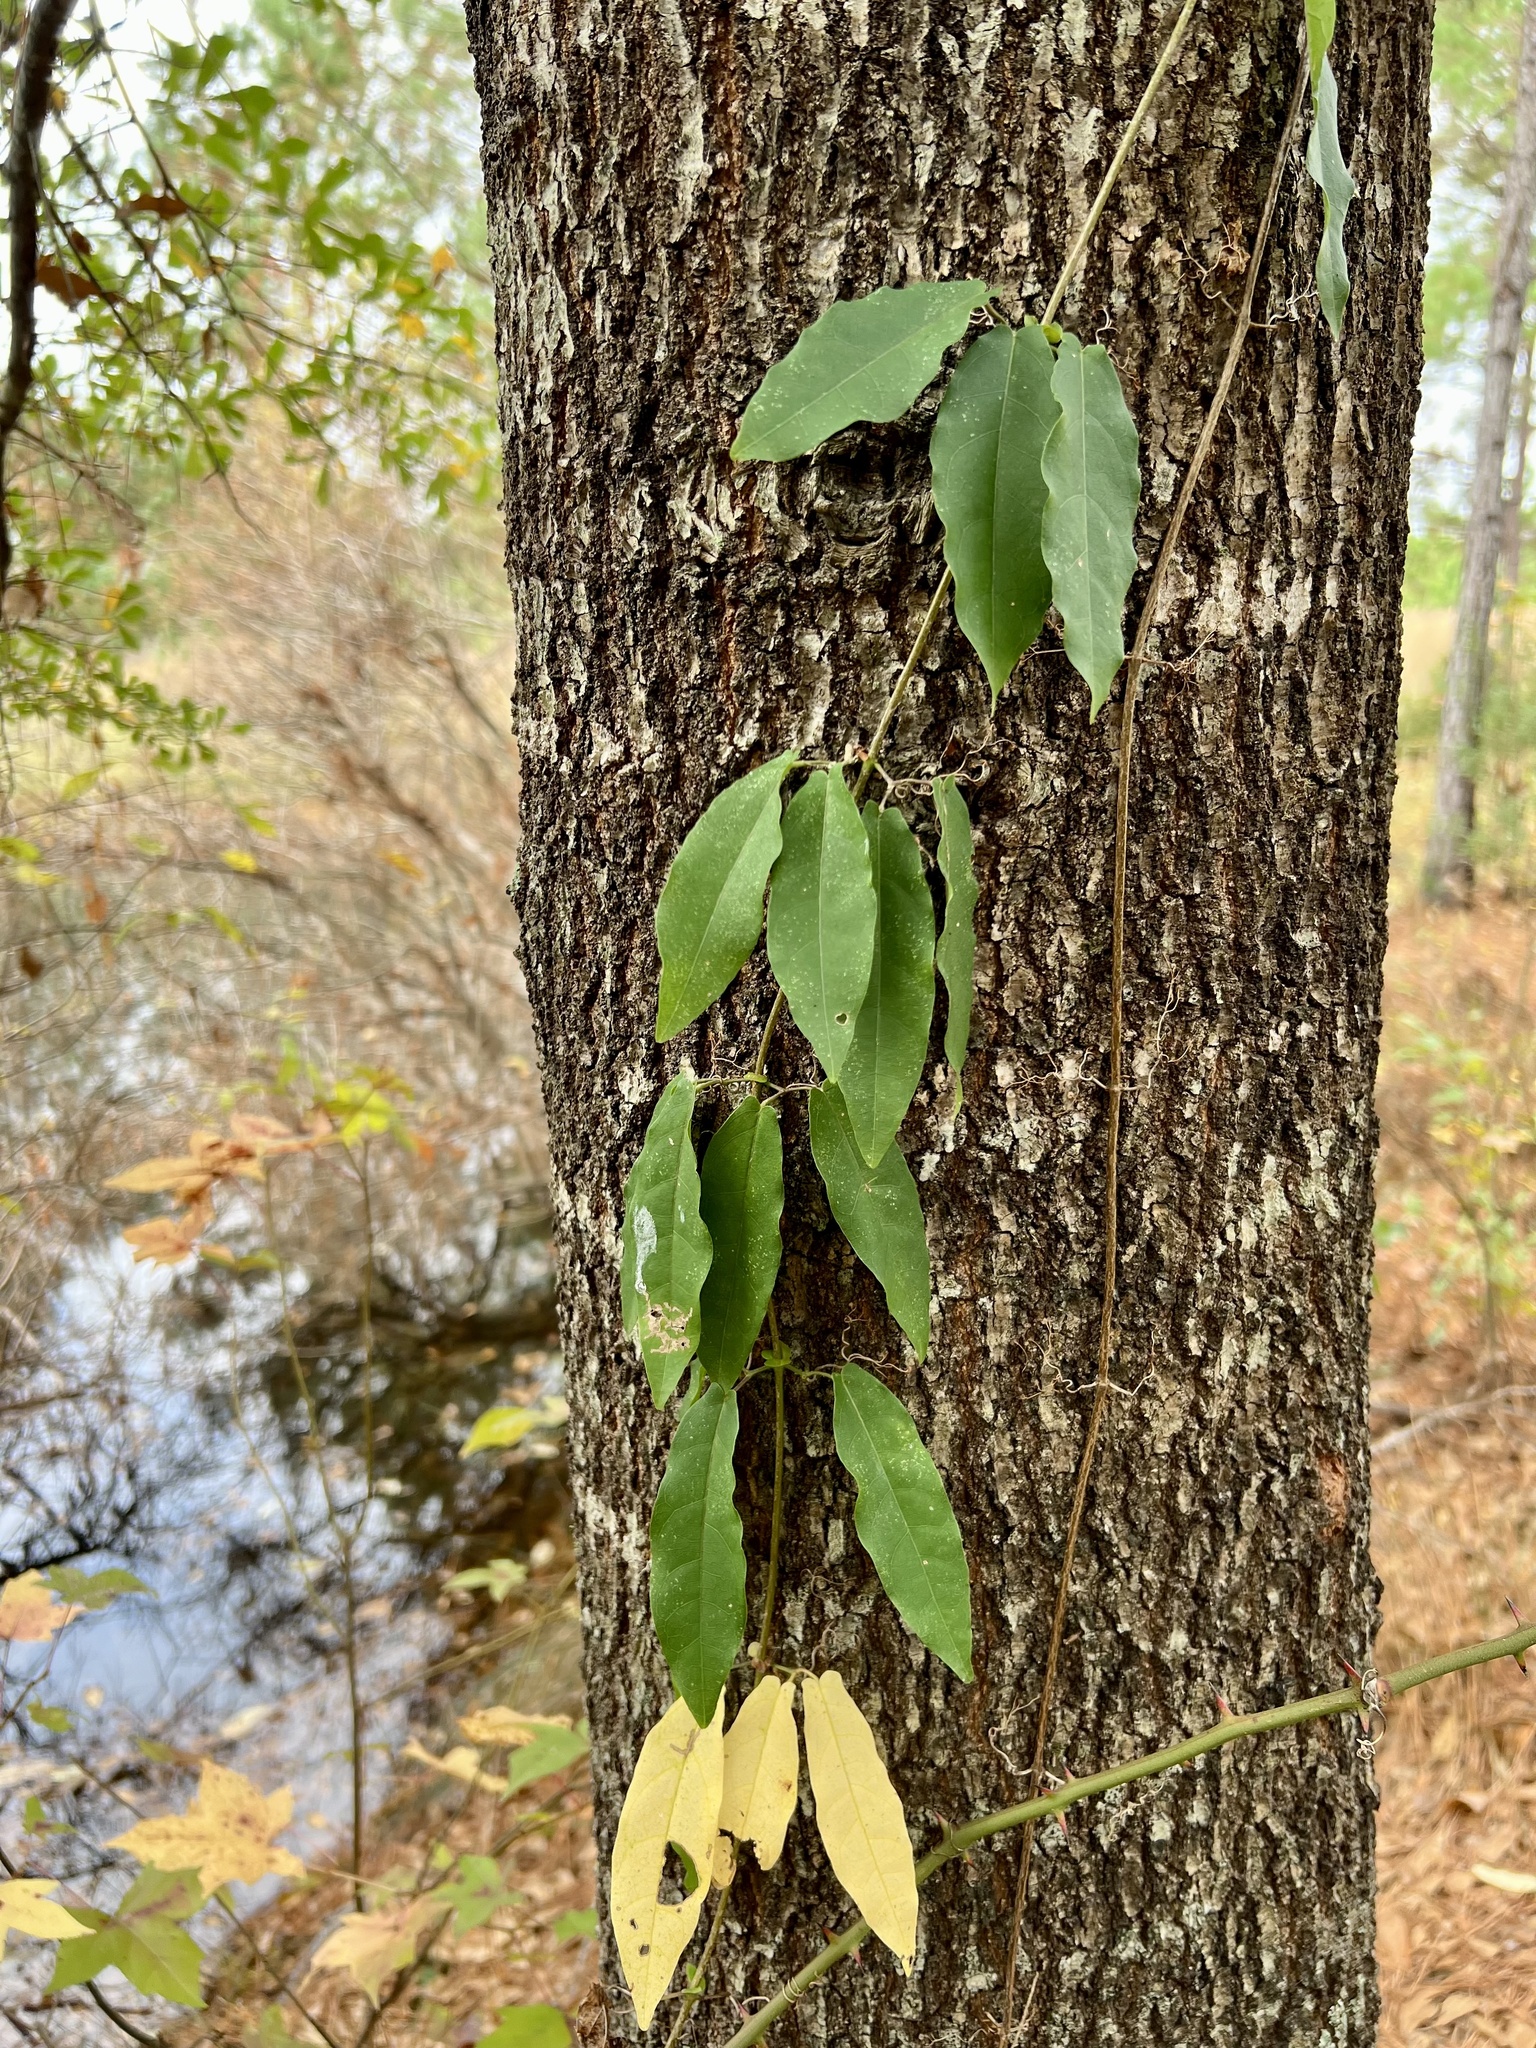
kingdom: Plantae
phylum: Tracheophyta
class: Magnoliopsida
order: Lamiales
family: Bignoniaceae
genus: Bignonia
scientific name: Bignonia capreolata
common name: Crossvine
